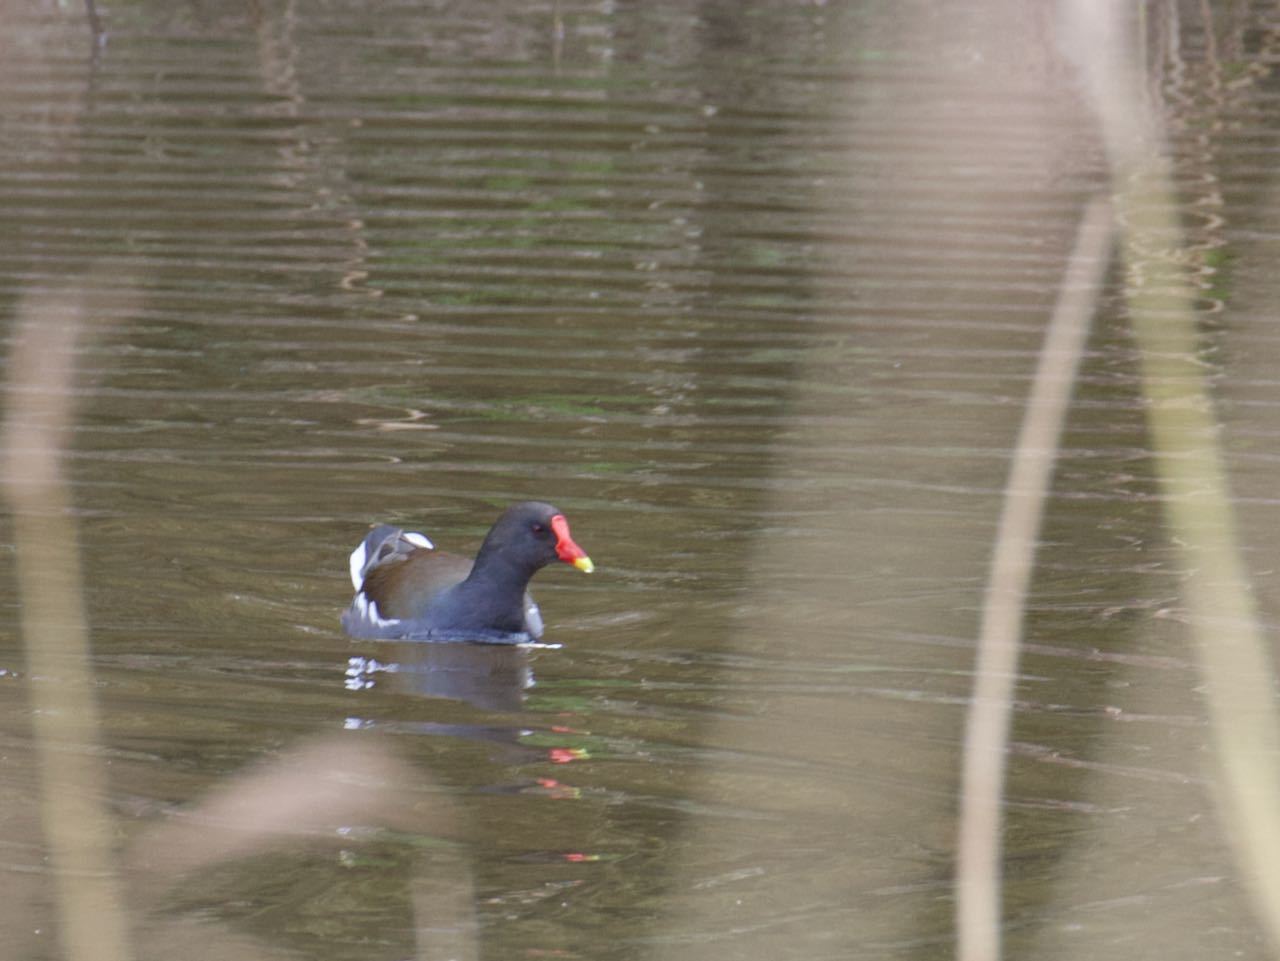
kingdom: Animalia
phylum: Chordata
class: Aves
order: Gruiformes
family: Rallidae
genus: Gallinula
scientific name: Gallinula chloropus
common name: Common moorhen
